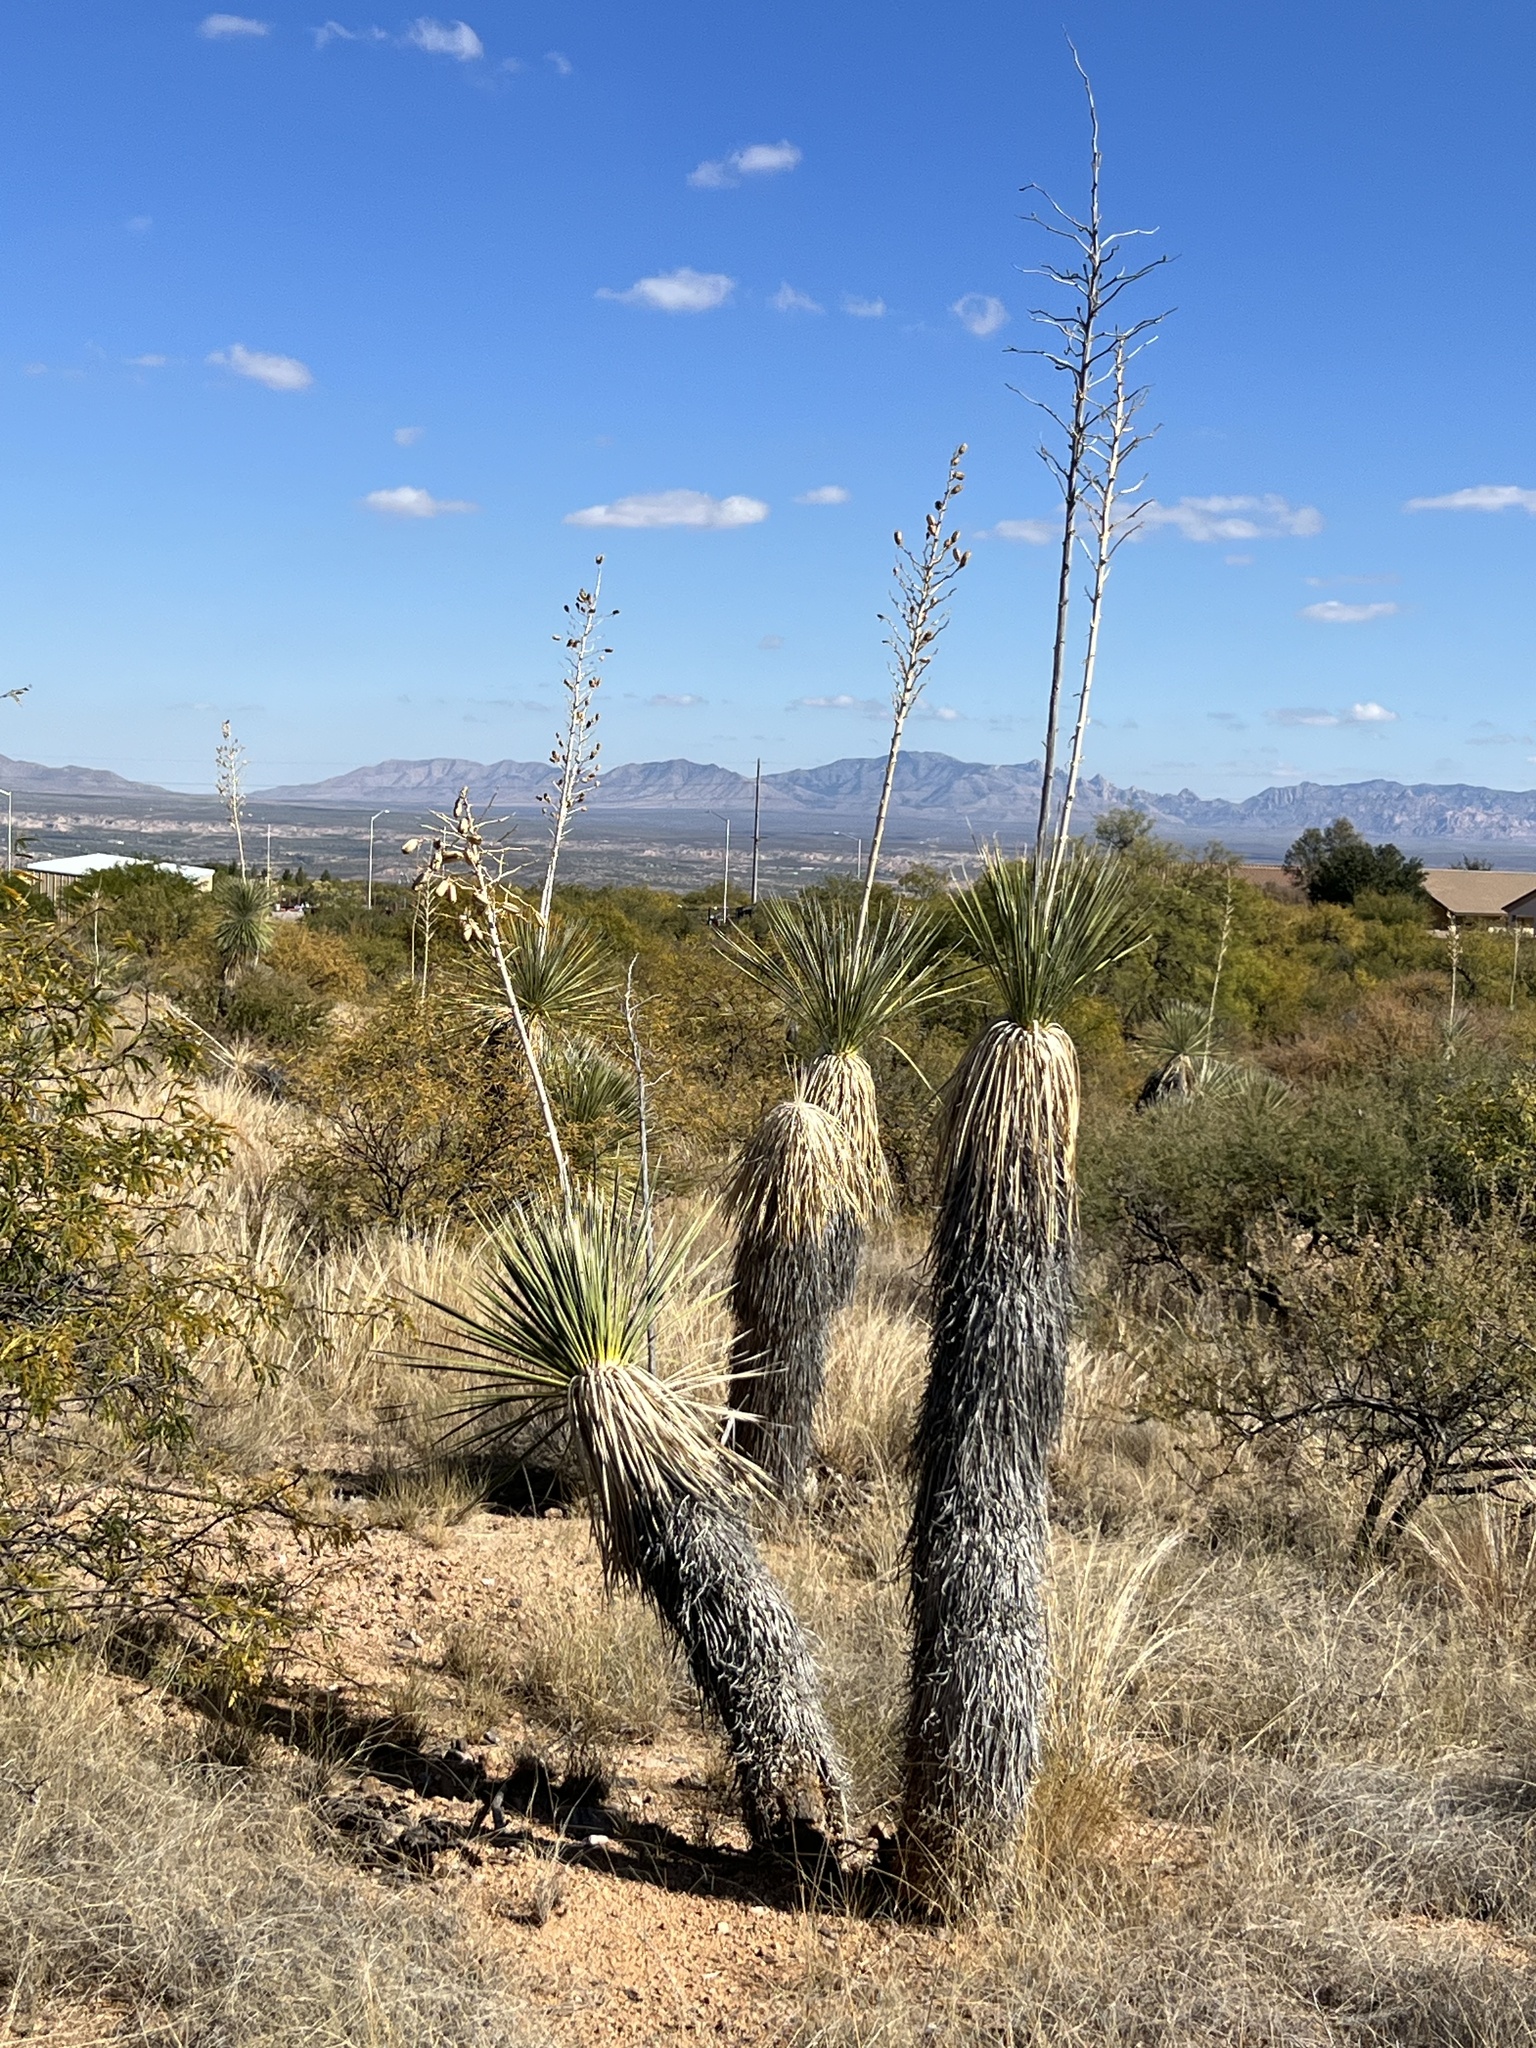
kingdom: Plantae
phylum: Tracheophyta
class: Liliopsida
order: Asparagales
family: Asparagaceae
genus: Yucca
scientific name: Yucca elata
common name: Palmella
